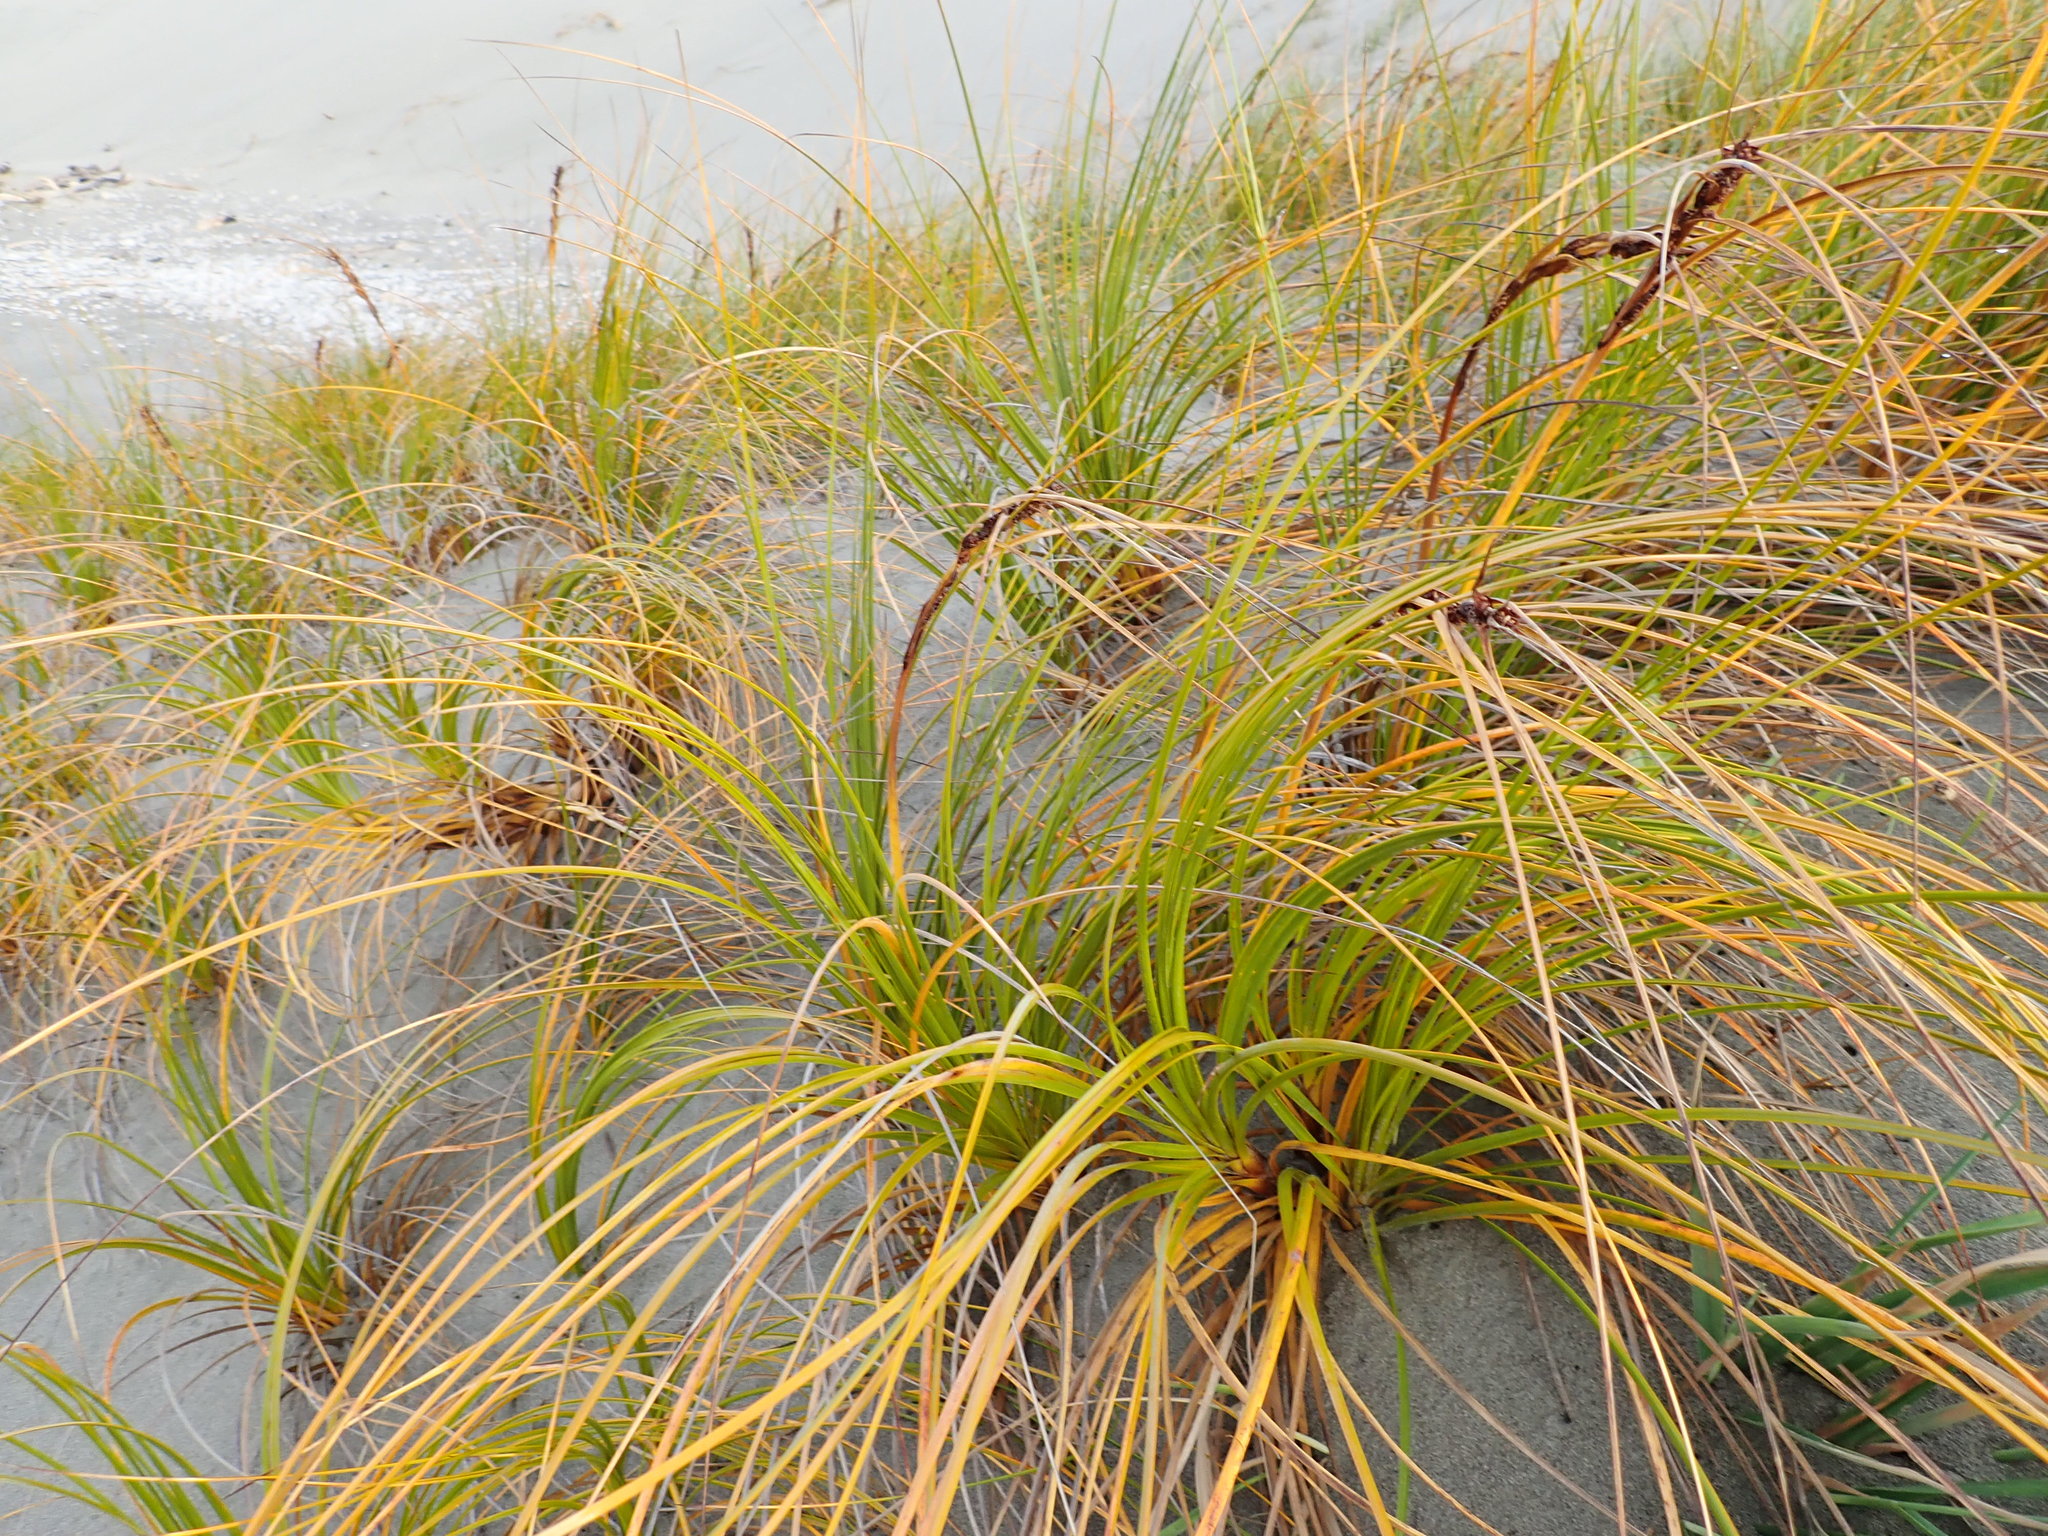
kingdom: Plantae
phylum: Tracheophyta
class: Liliopsida
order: Poales
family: Cyperaceae
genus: Ficinia
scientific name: Ficinia spiralis
